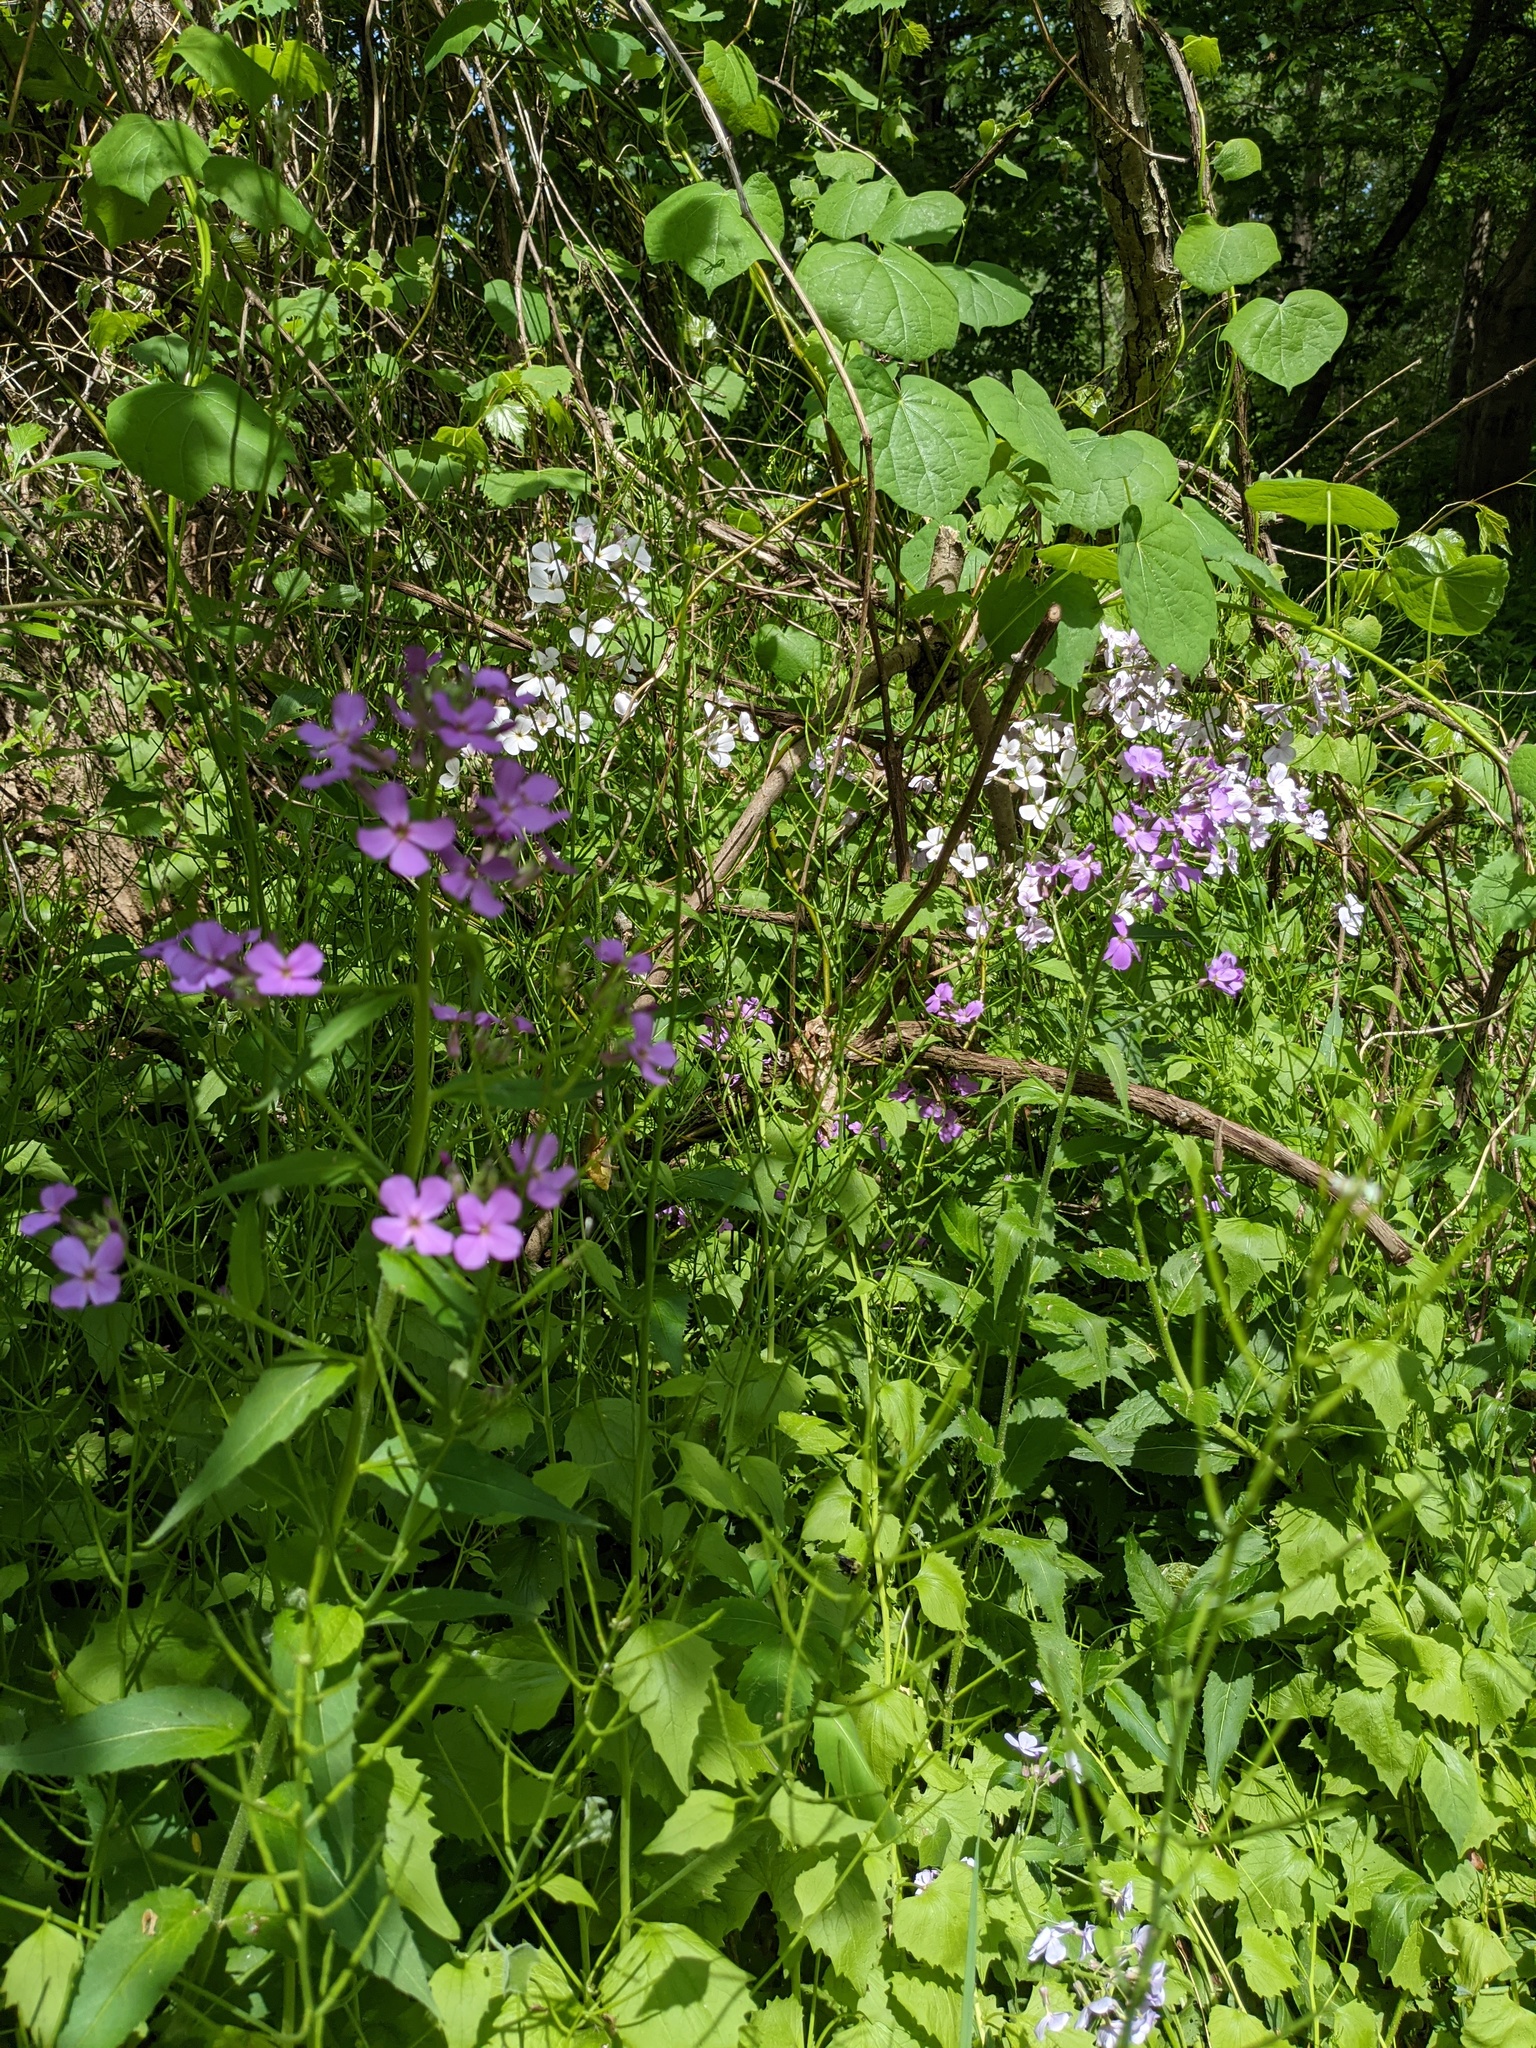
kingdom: Plantae
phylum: Tracheophyta
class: Magnoliopsida
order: Brassicales
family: Brassicaceae
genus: Hesperis
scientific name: Hesperis matronalis
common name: Dame's-violet
